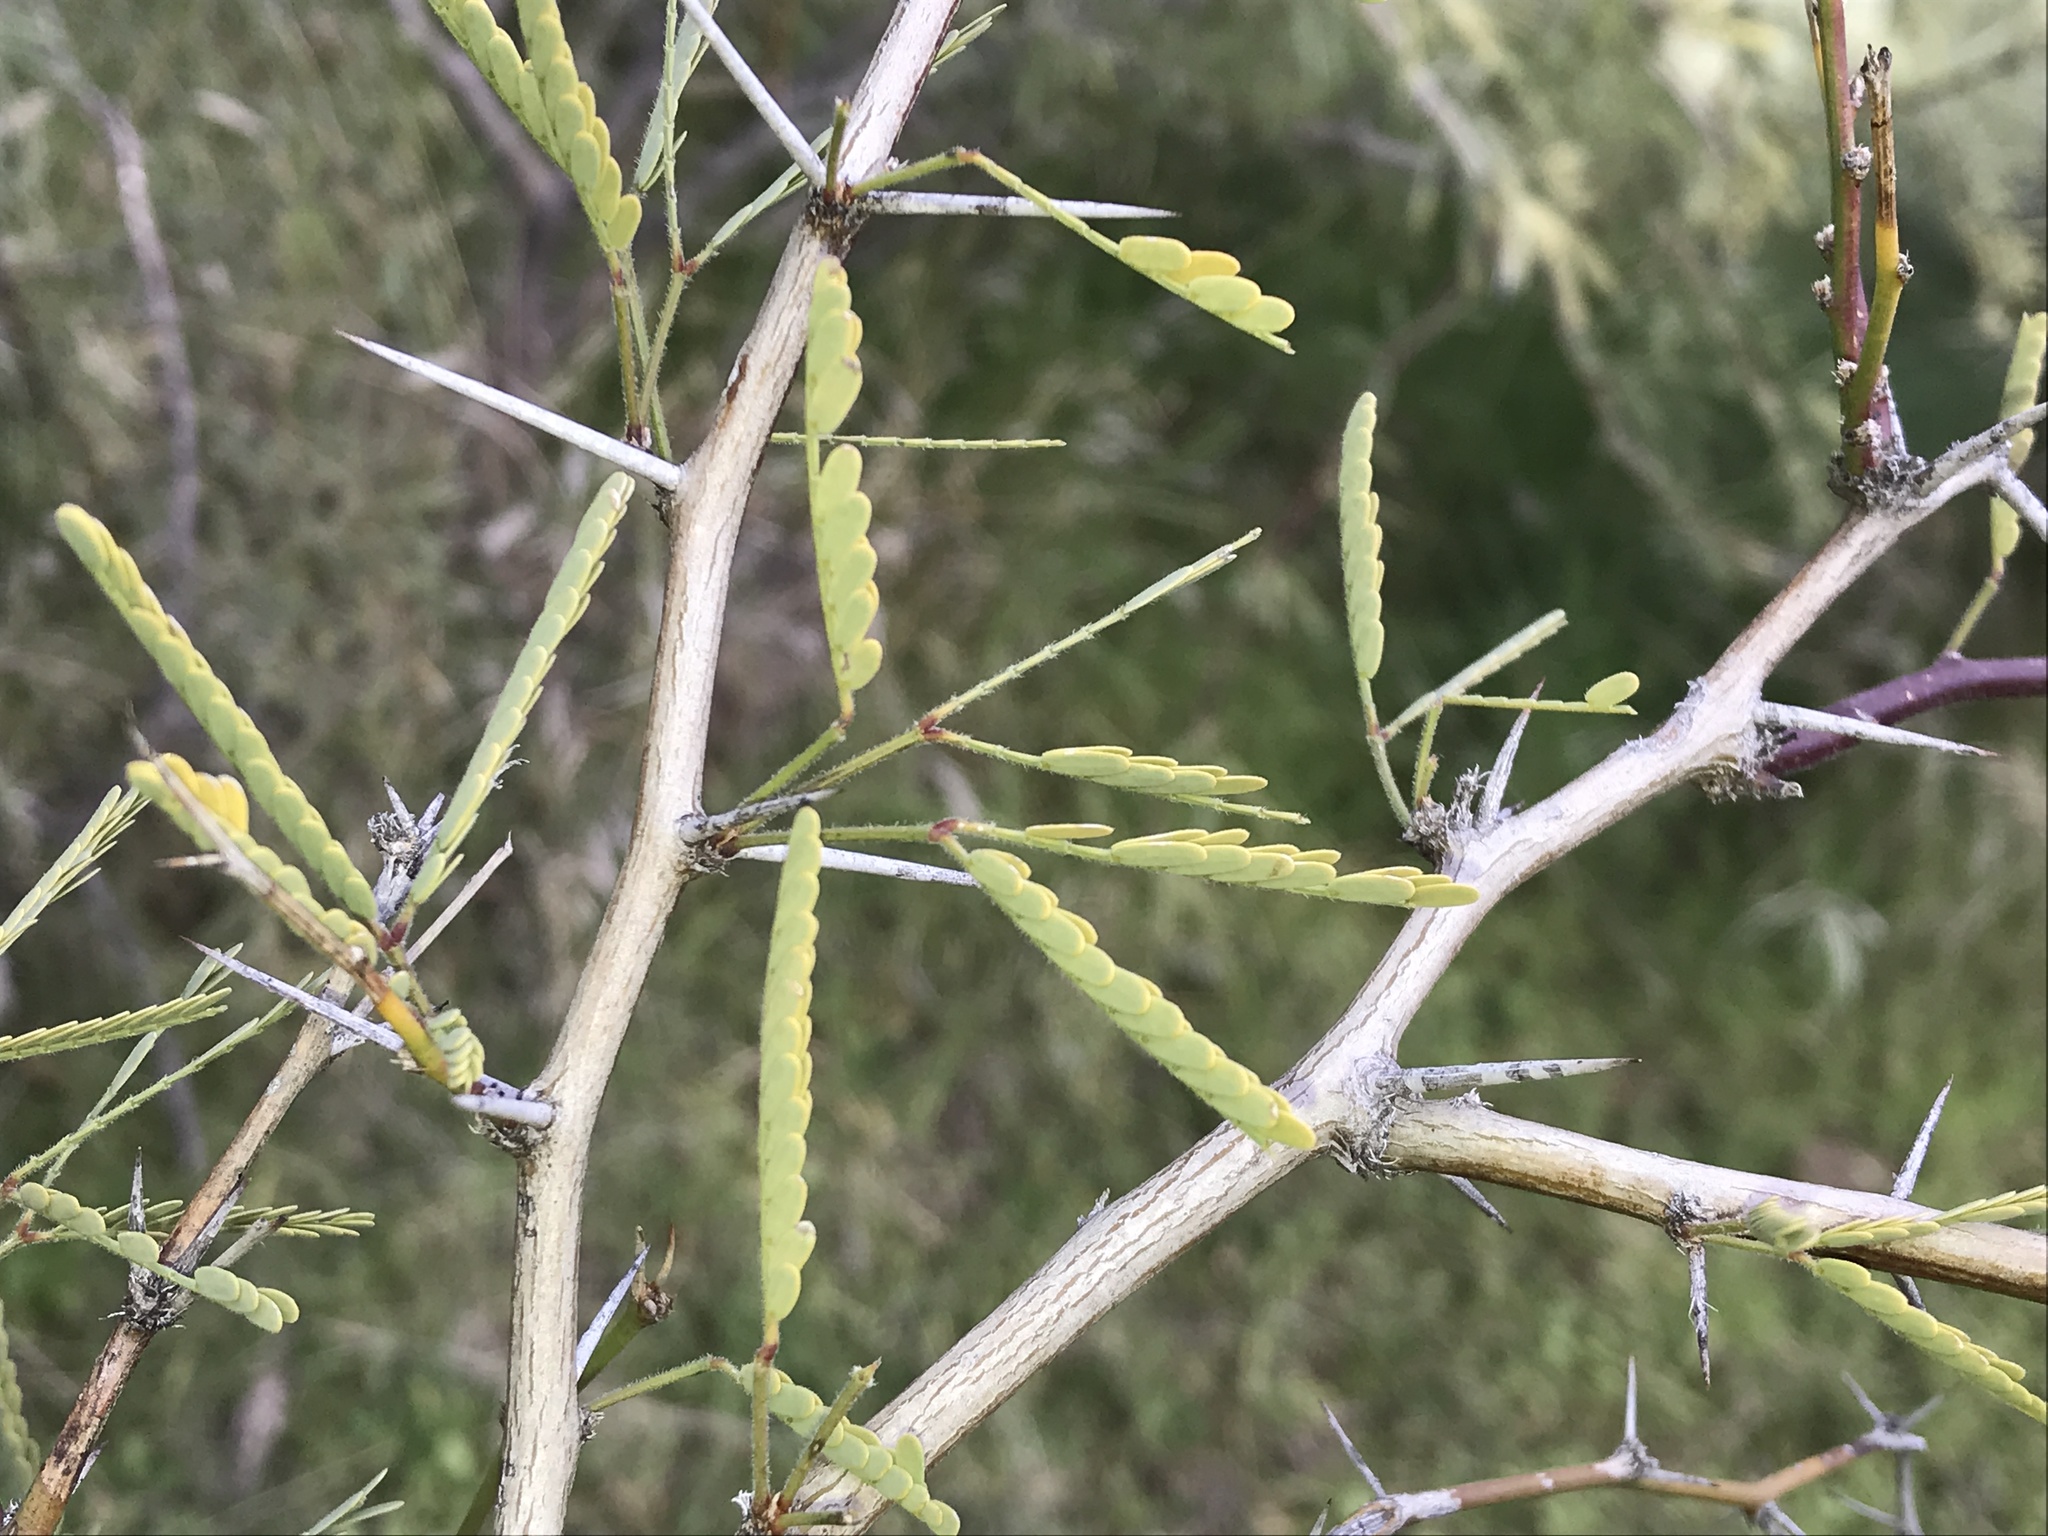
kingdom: Plantae
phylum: Tracheophyta
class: Magnoliopsida
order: Fabales
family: Fabaceae
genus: Vachellia
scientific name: Vachellia constricta
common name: Mescat acacia
